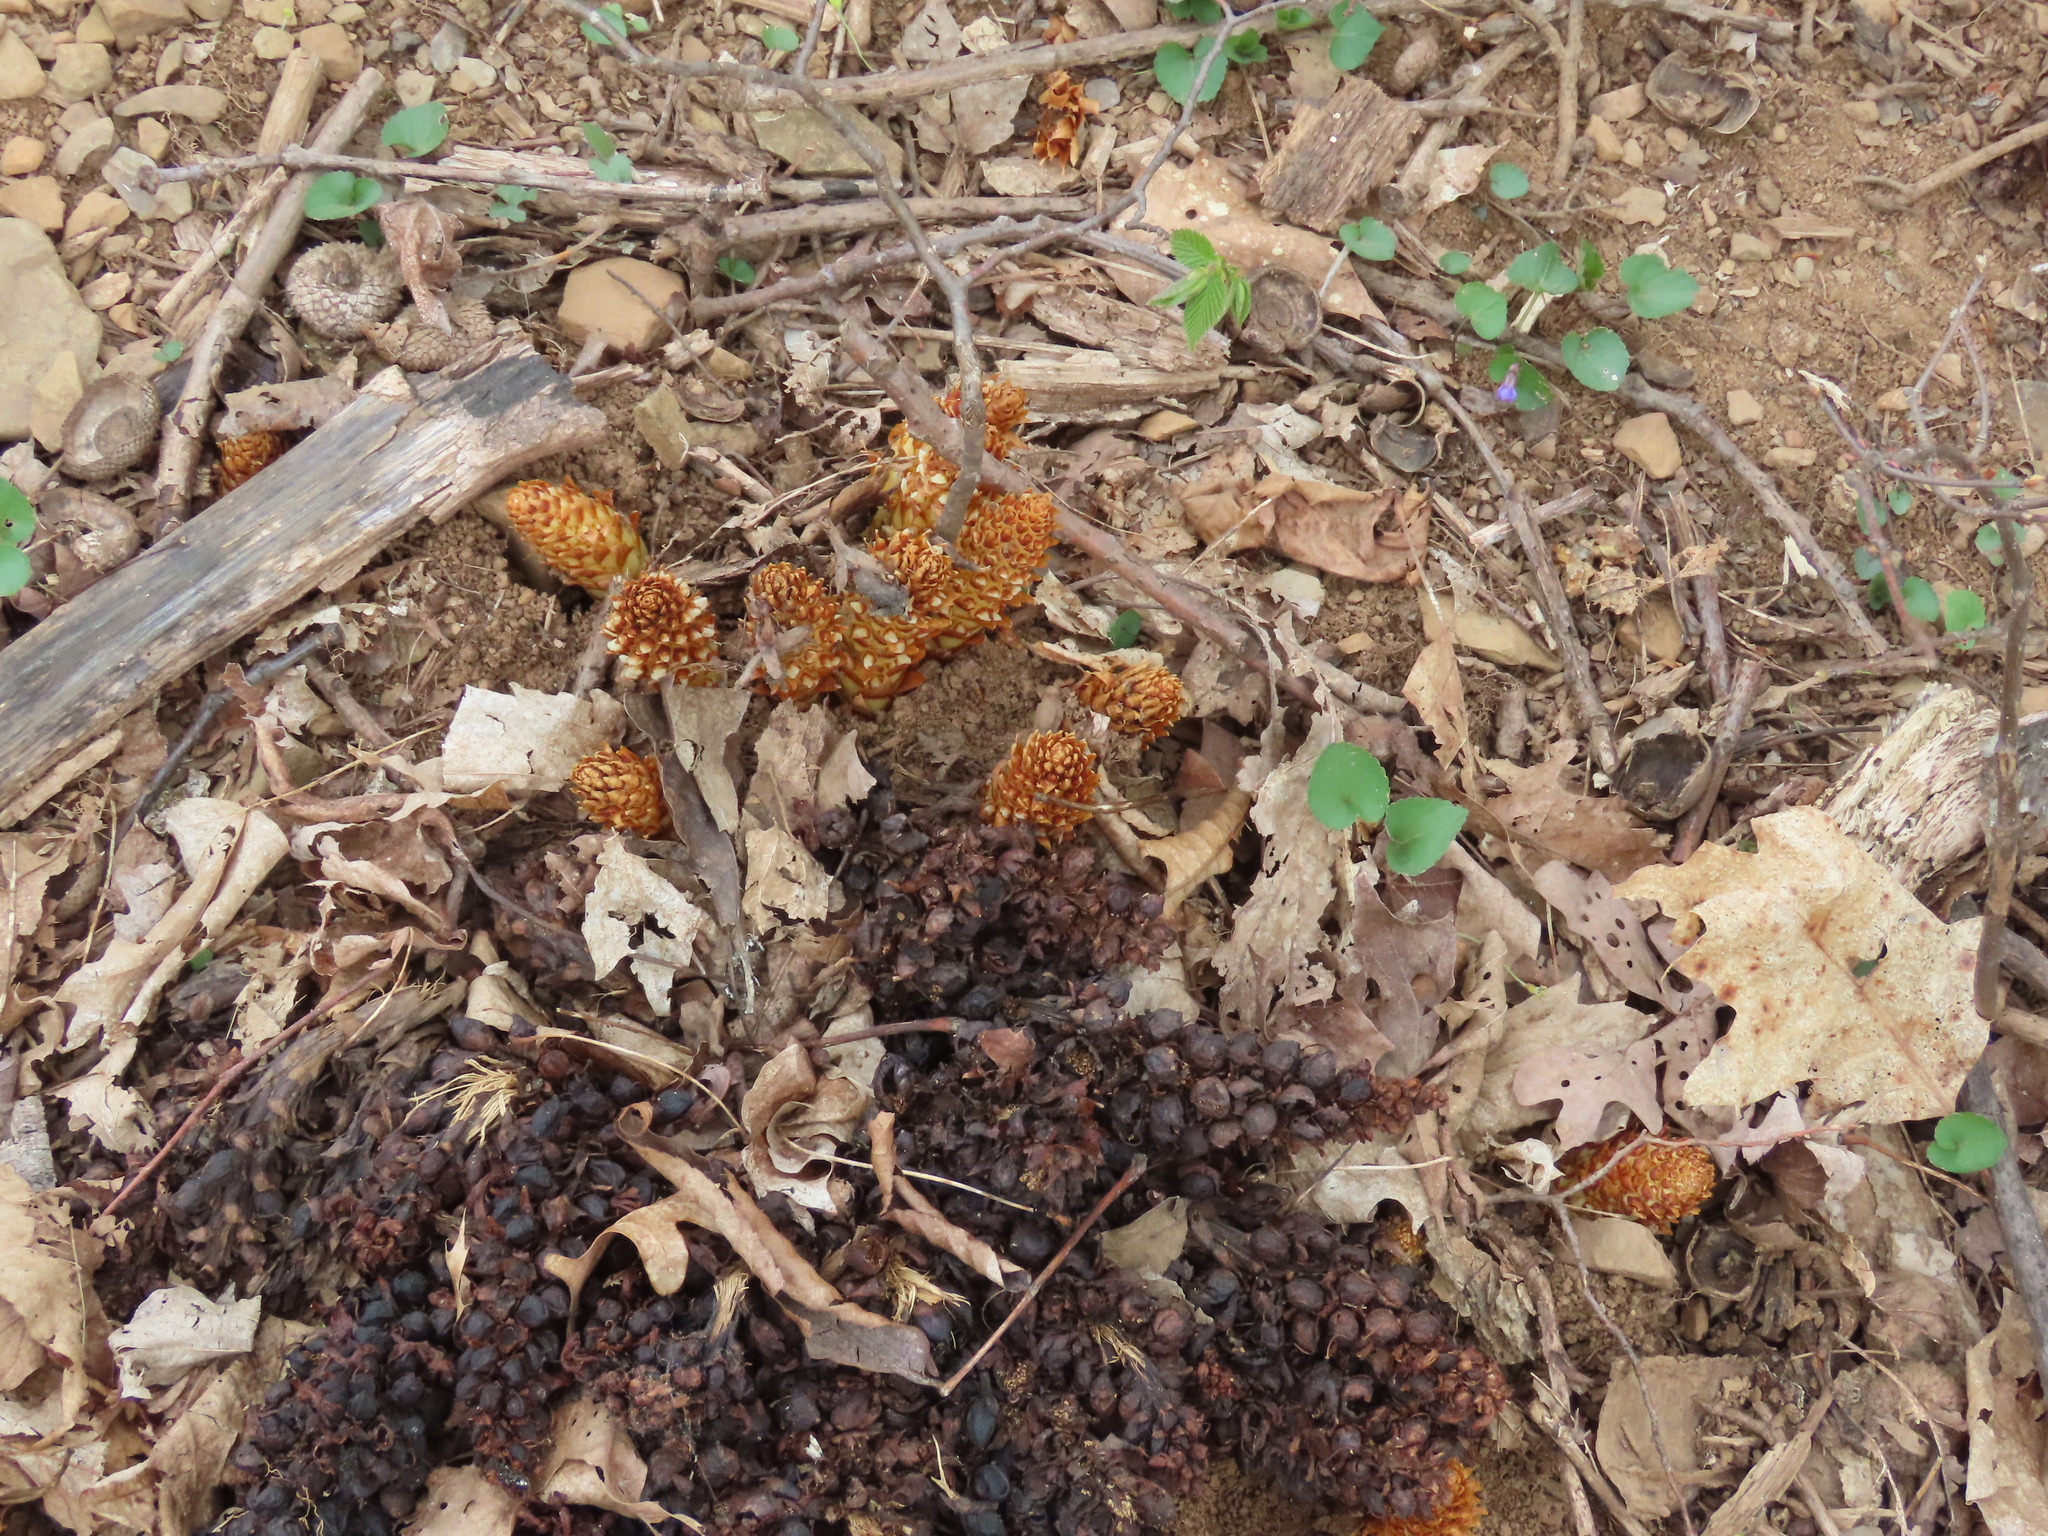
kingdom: Plantae
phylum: Tracheophyta
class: Magnoliopsida
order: Lamiales
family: Orobanchaceae
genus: Conopholis
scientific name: Conopholis americana
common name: American cancer-root
